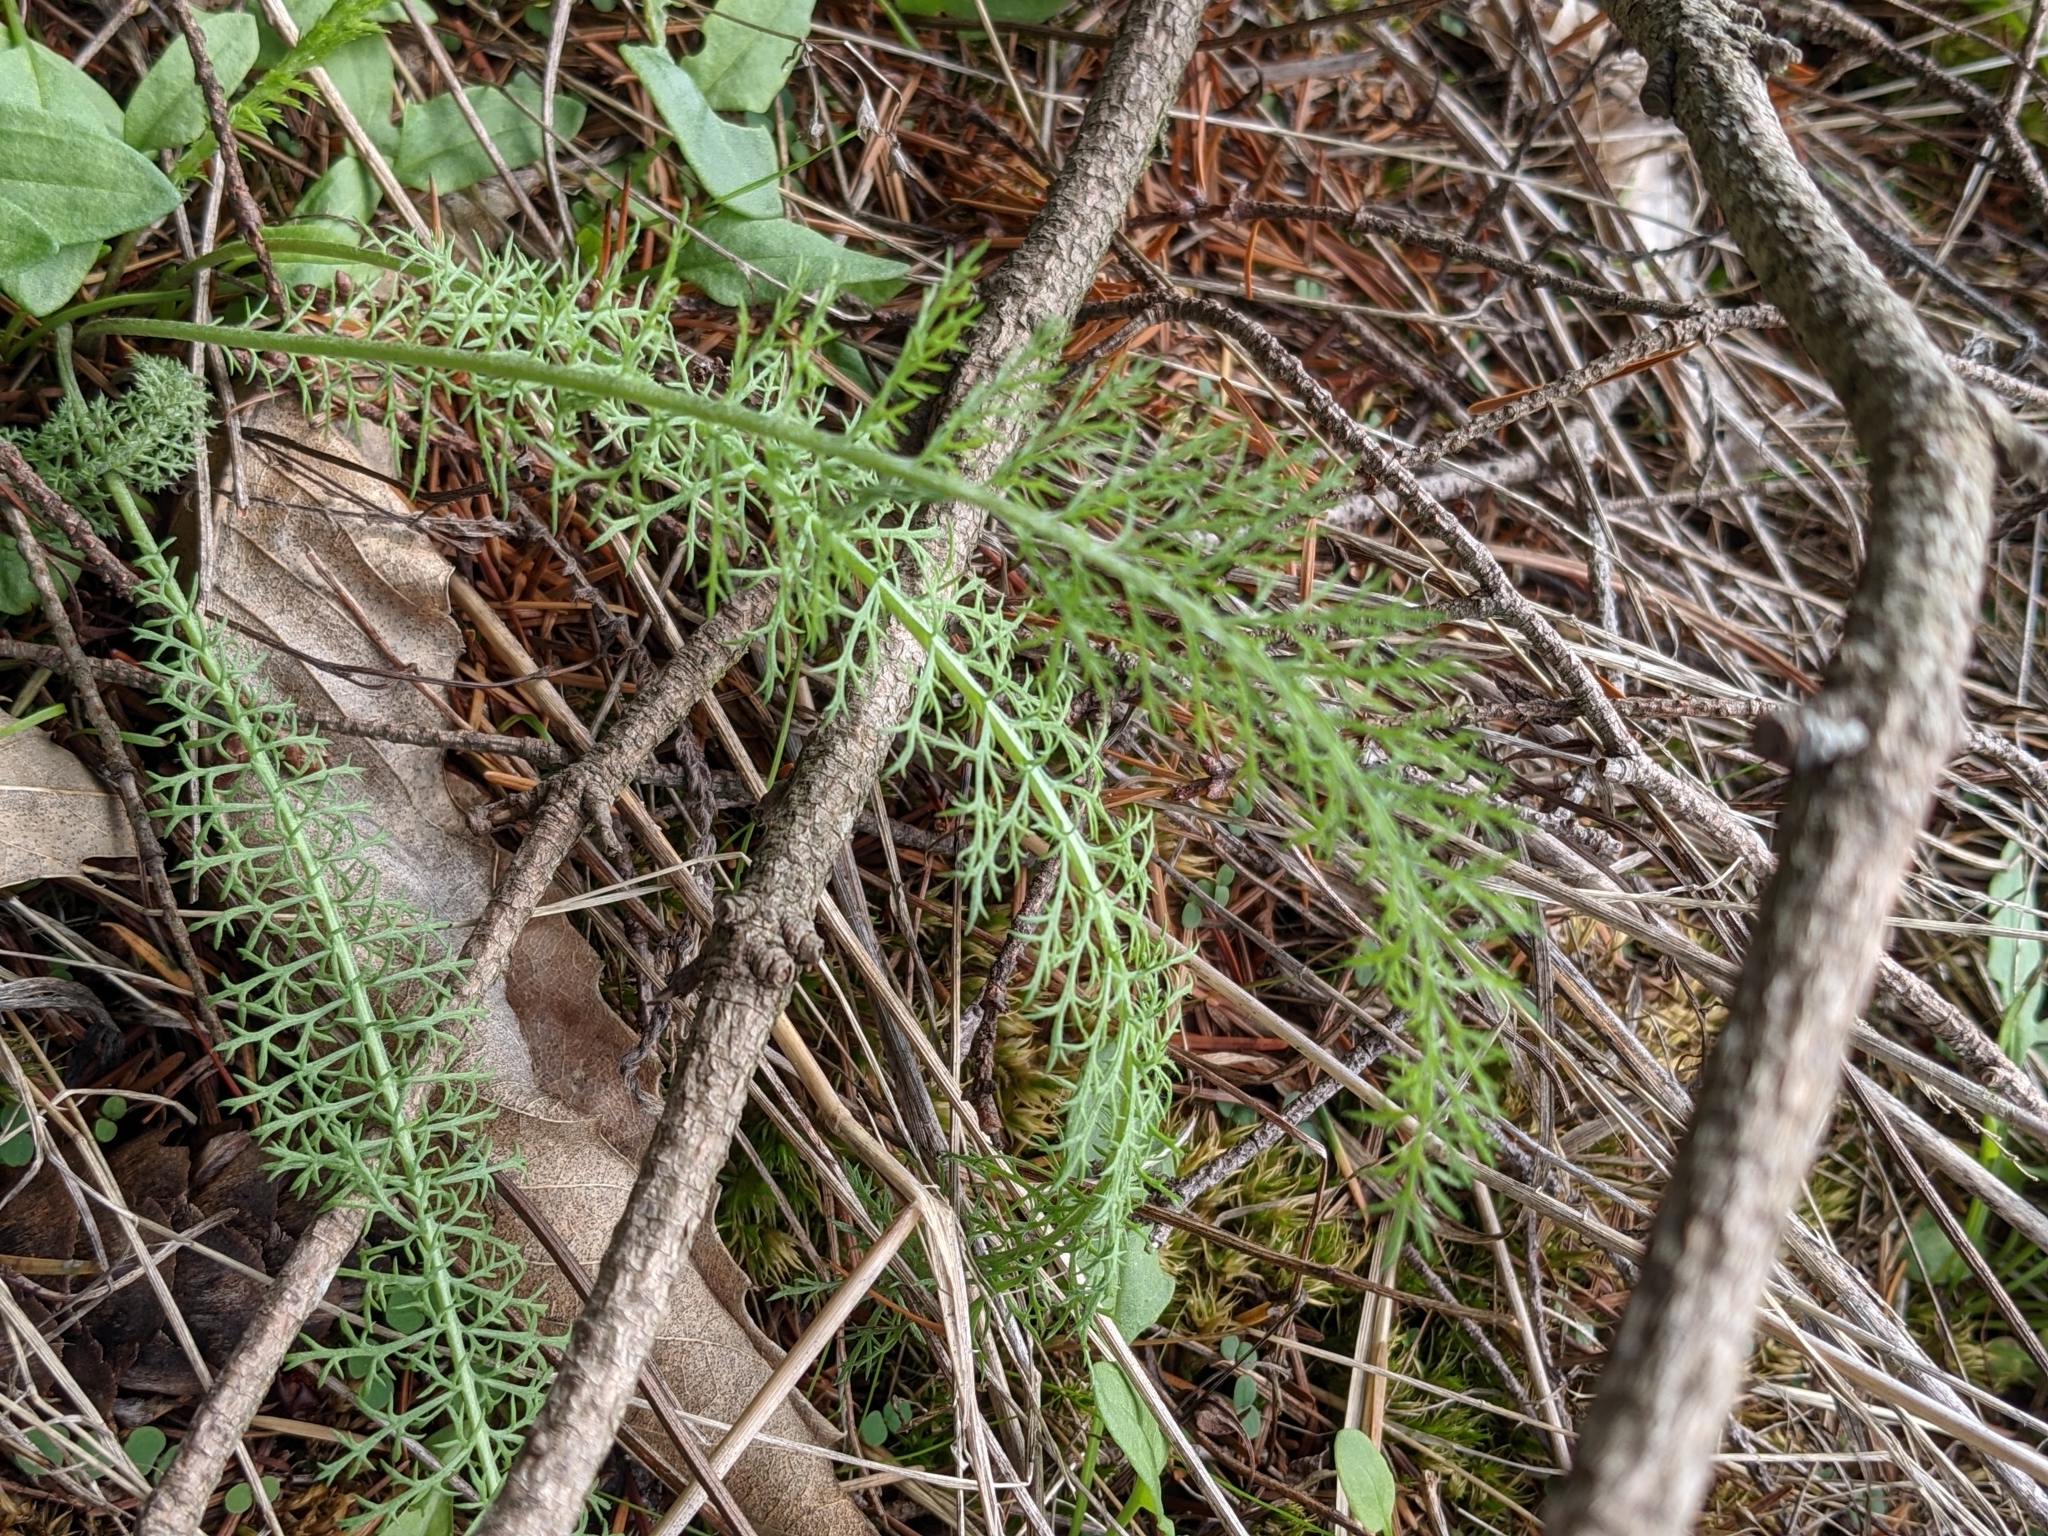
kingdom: Plantae
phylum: Tracheophyta
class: Magnoliopsida
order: Asterales
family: Asteraceae
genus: Achillea
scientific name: Achillea millefolium
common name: Yarrow
